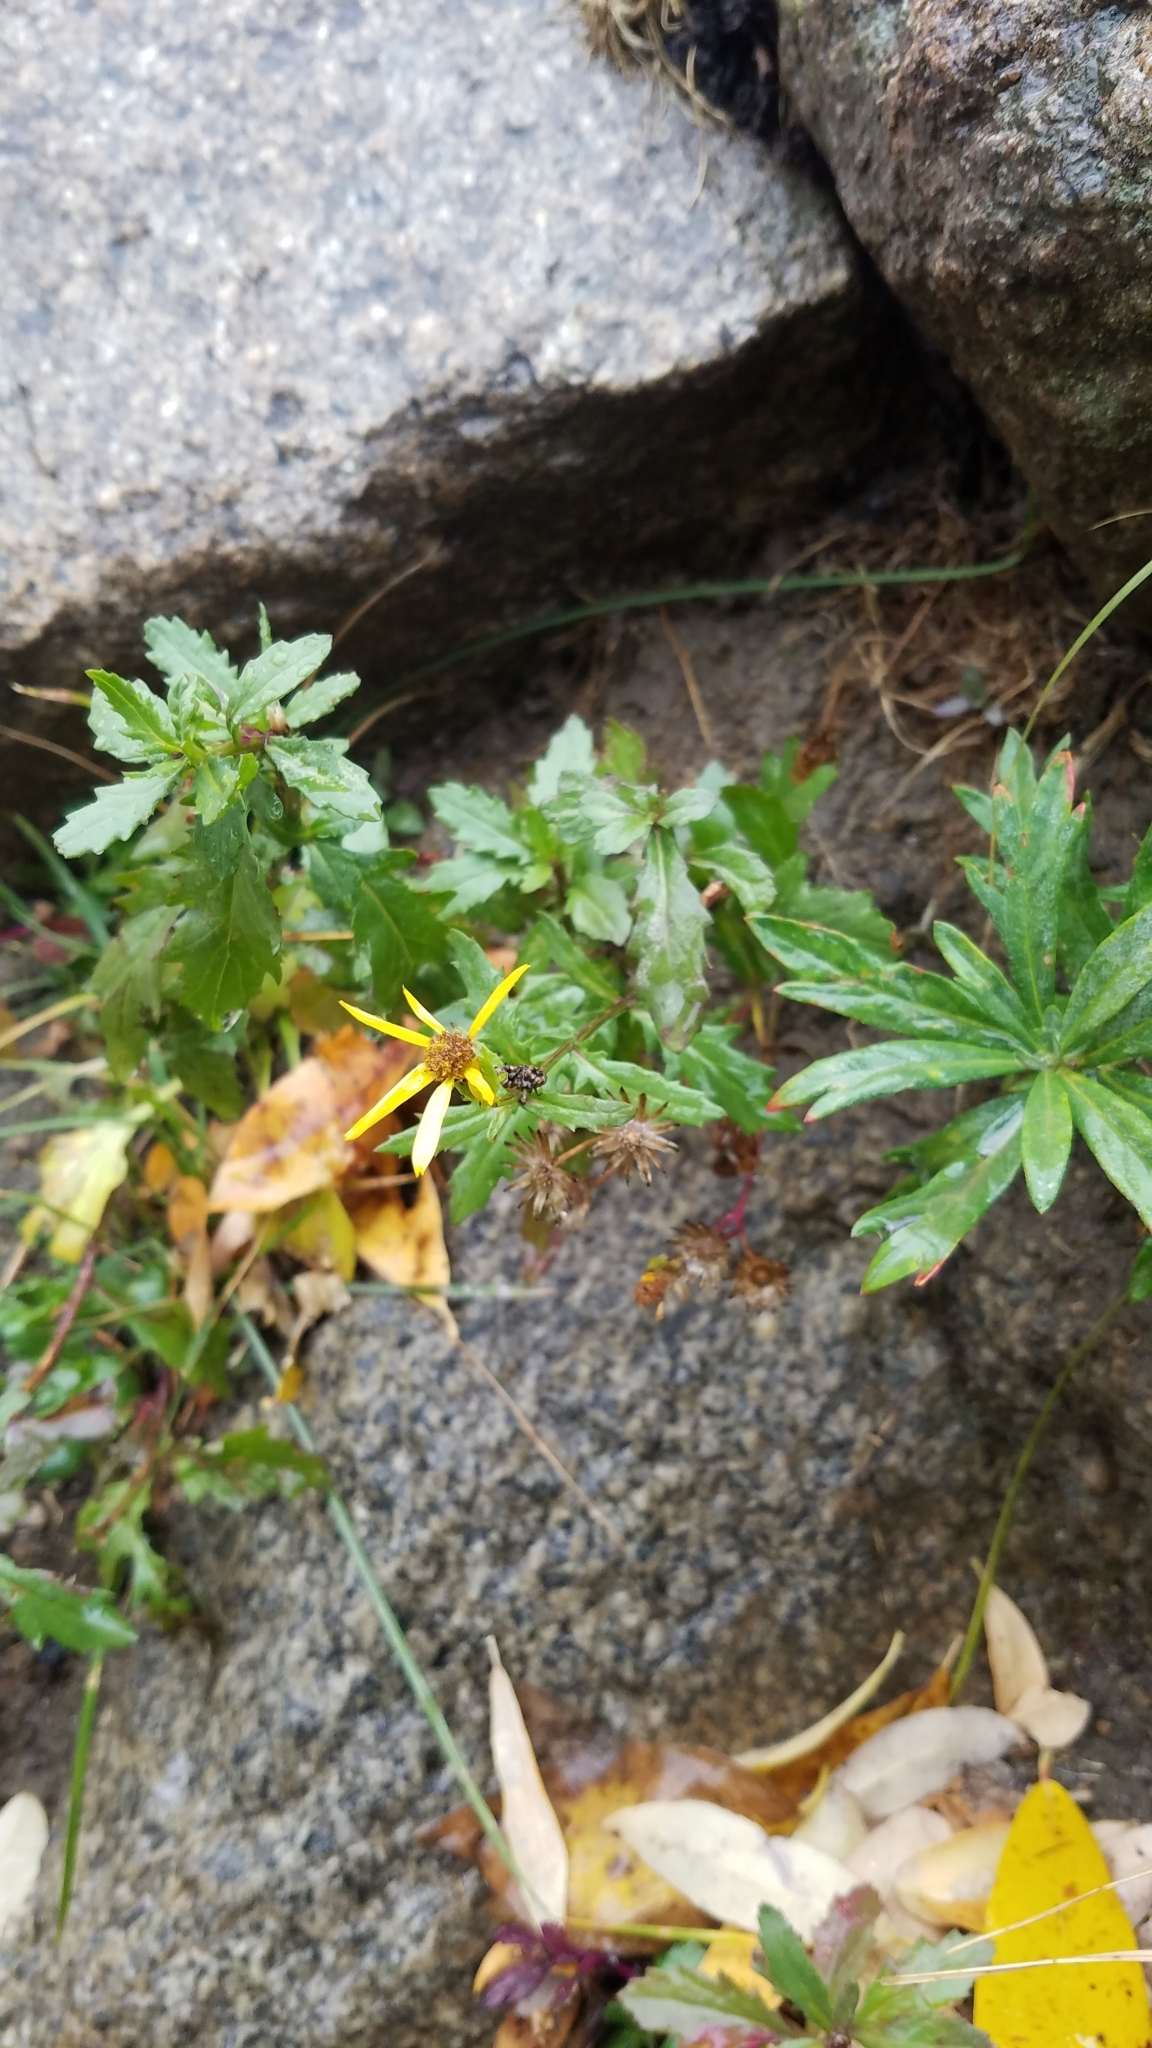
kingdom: Plantae
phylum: Tracheophyta
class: Magnoliopsida
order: Asterales
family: Asteraceae
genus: Senecio
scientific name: Senecio fremontii
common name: Fremont's groundsel
